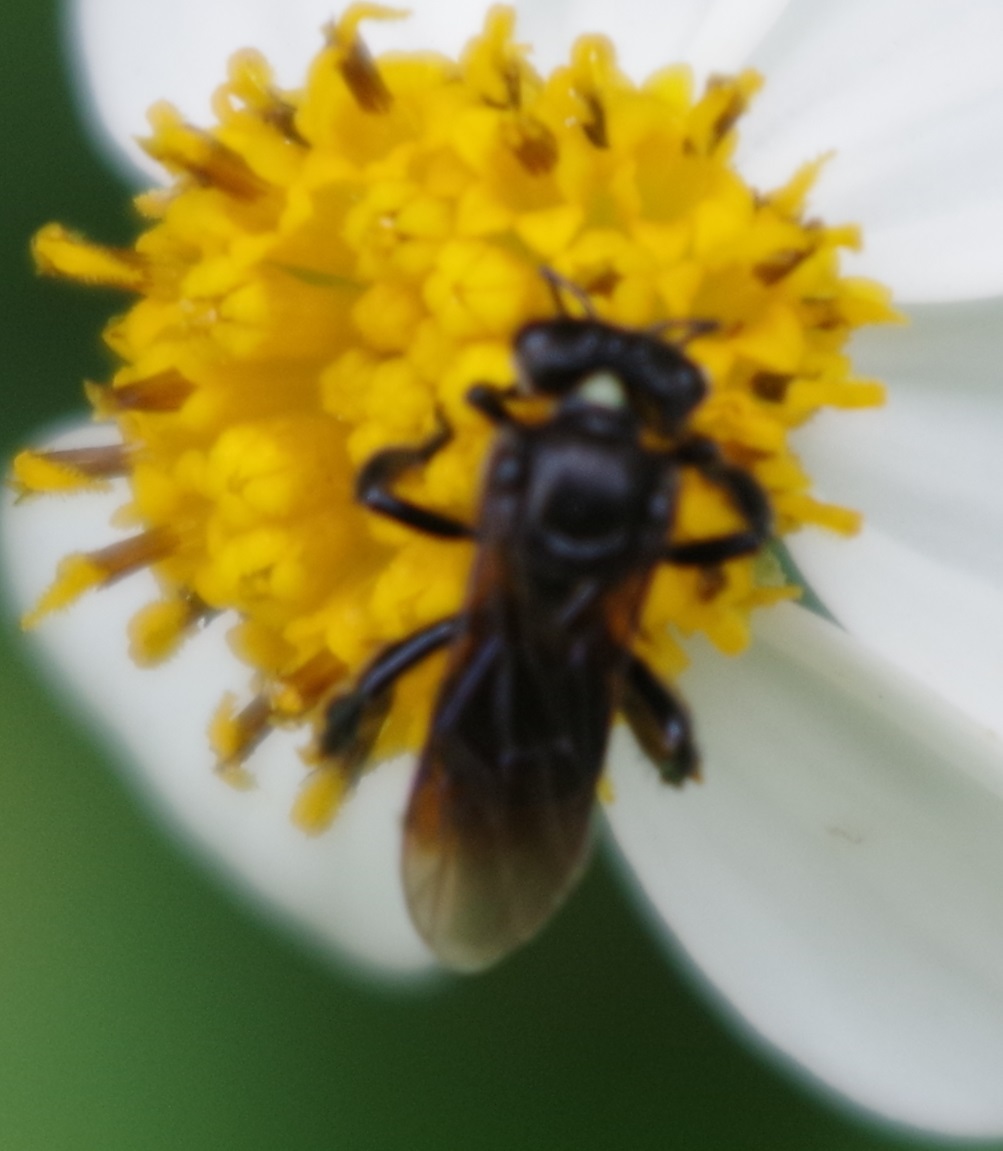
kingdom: Animalia
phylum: Arthropoda
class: Insecta
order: Hymenoptera
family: Apidae
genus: Tetragonula
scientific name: Tetragonula collina
